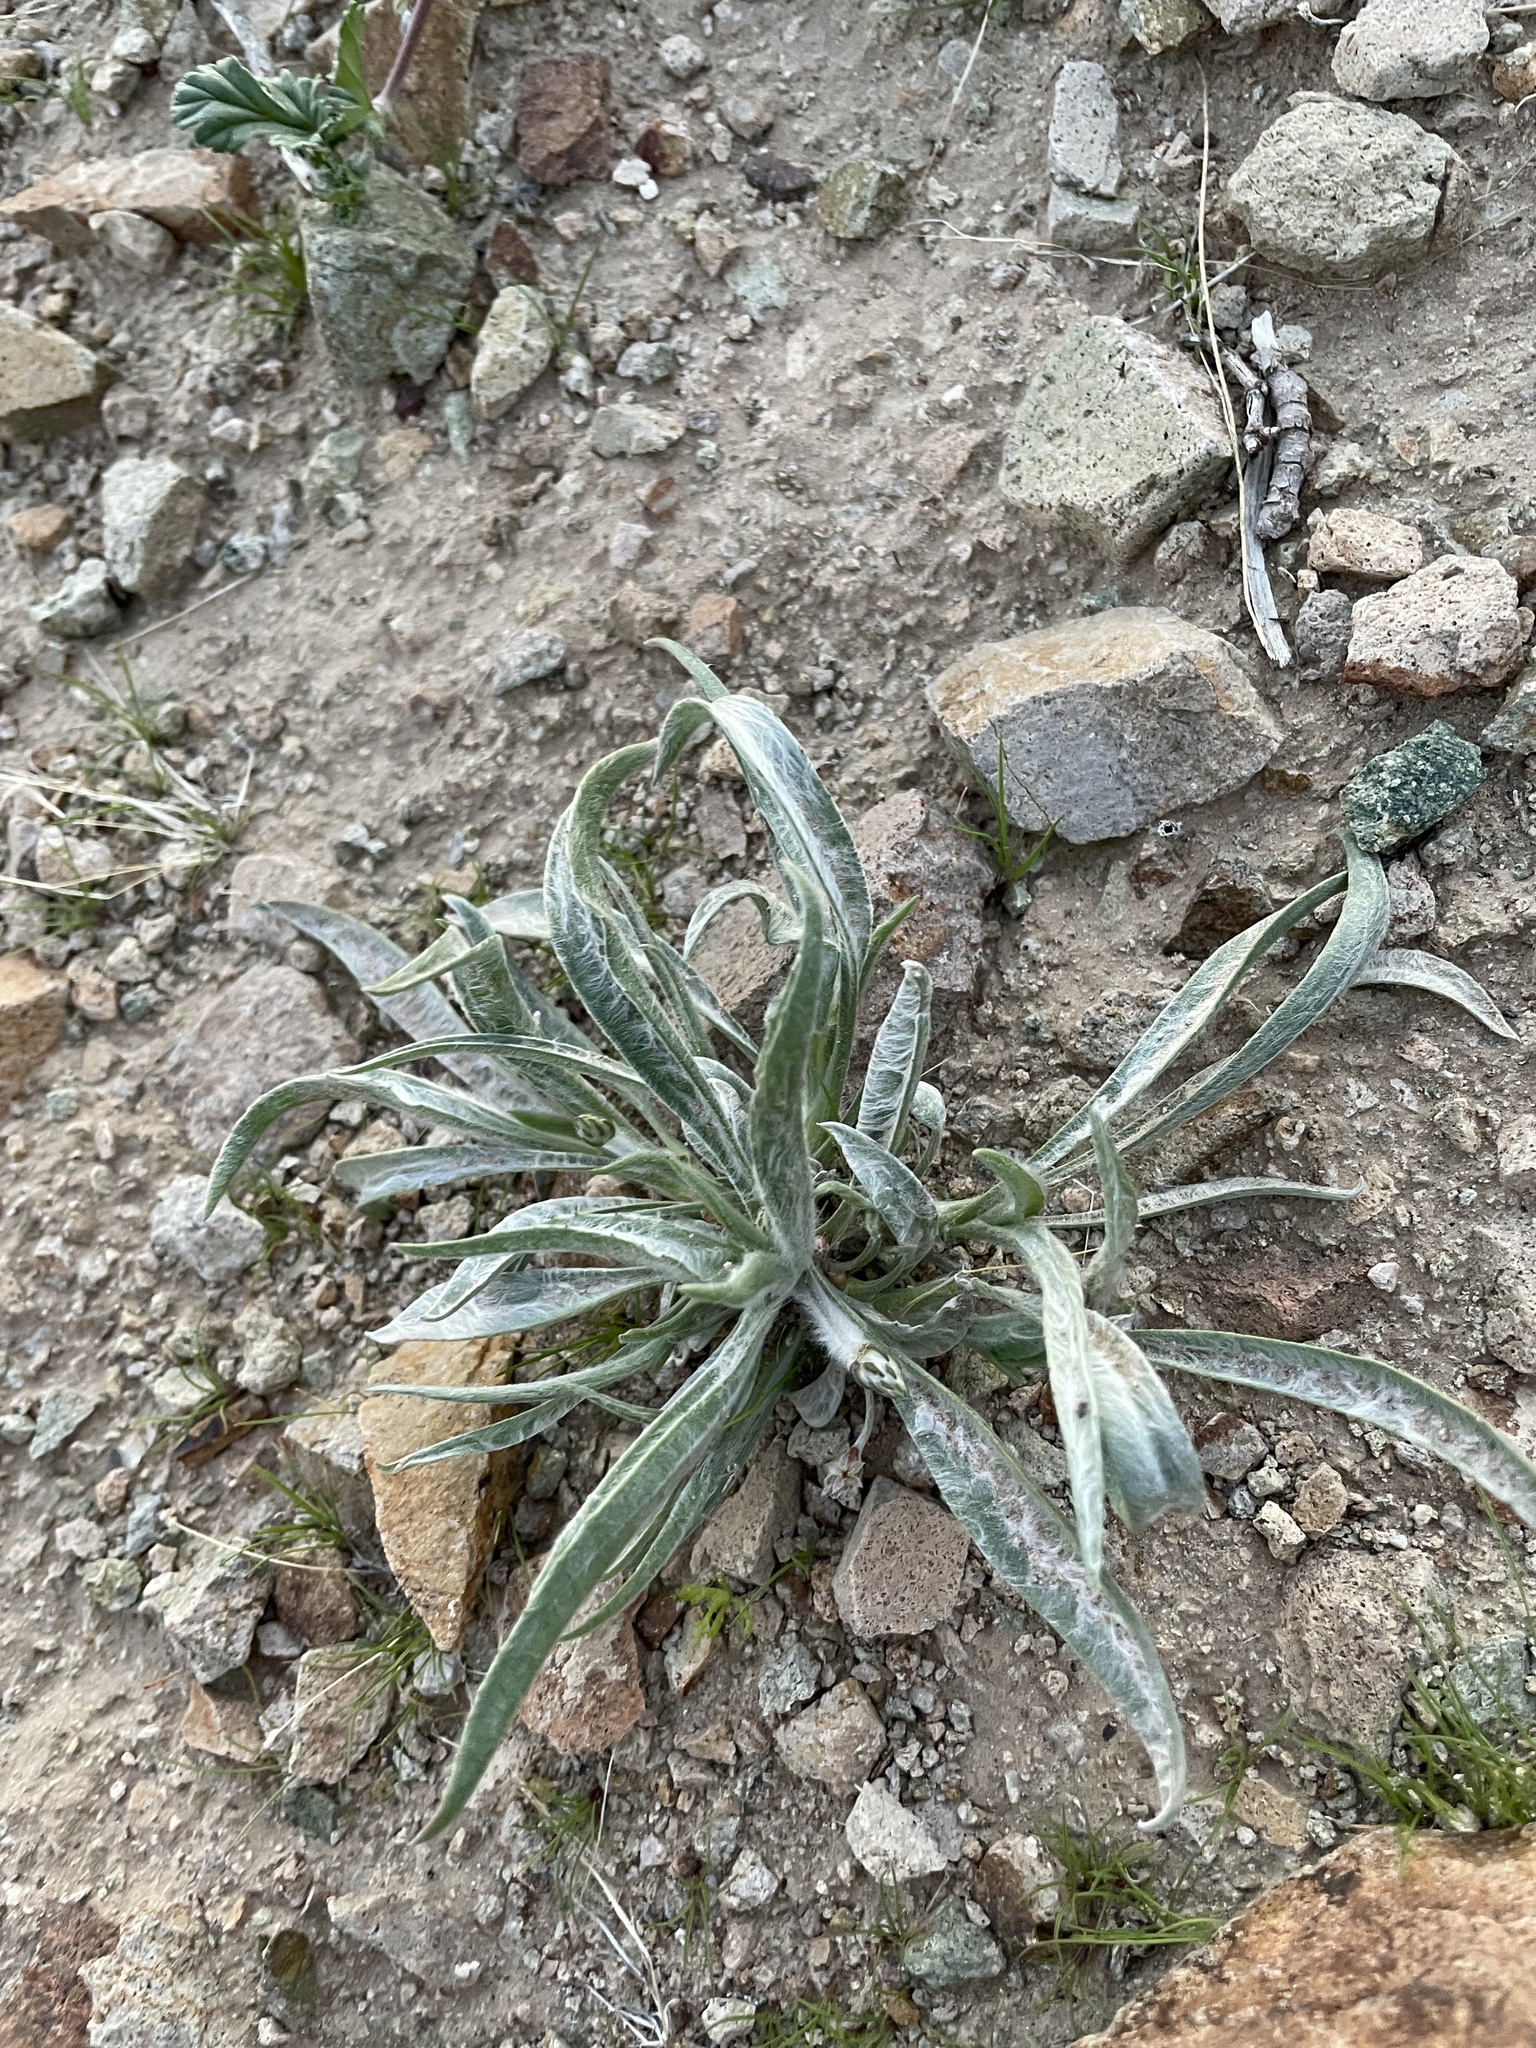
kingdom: Plantae
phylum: Tracheophyta
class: Magnoliopsida
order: Lamiales
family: Plantaginaceae
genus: Plantago
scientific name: Plantago ovata
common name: Blond plantain
